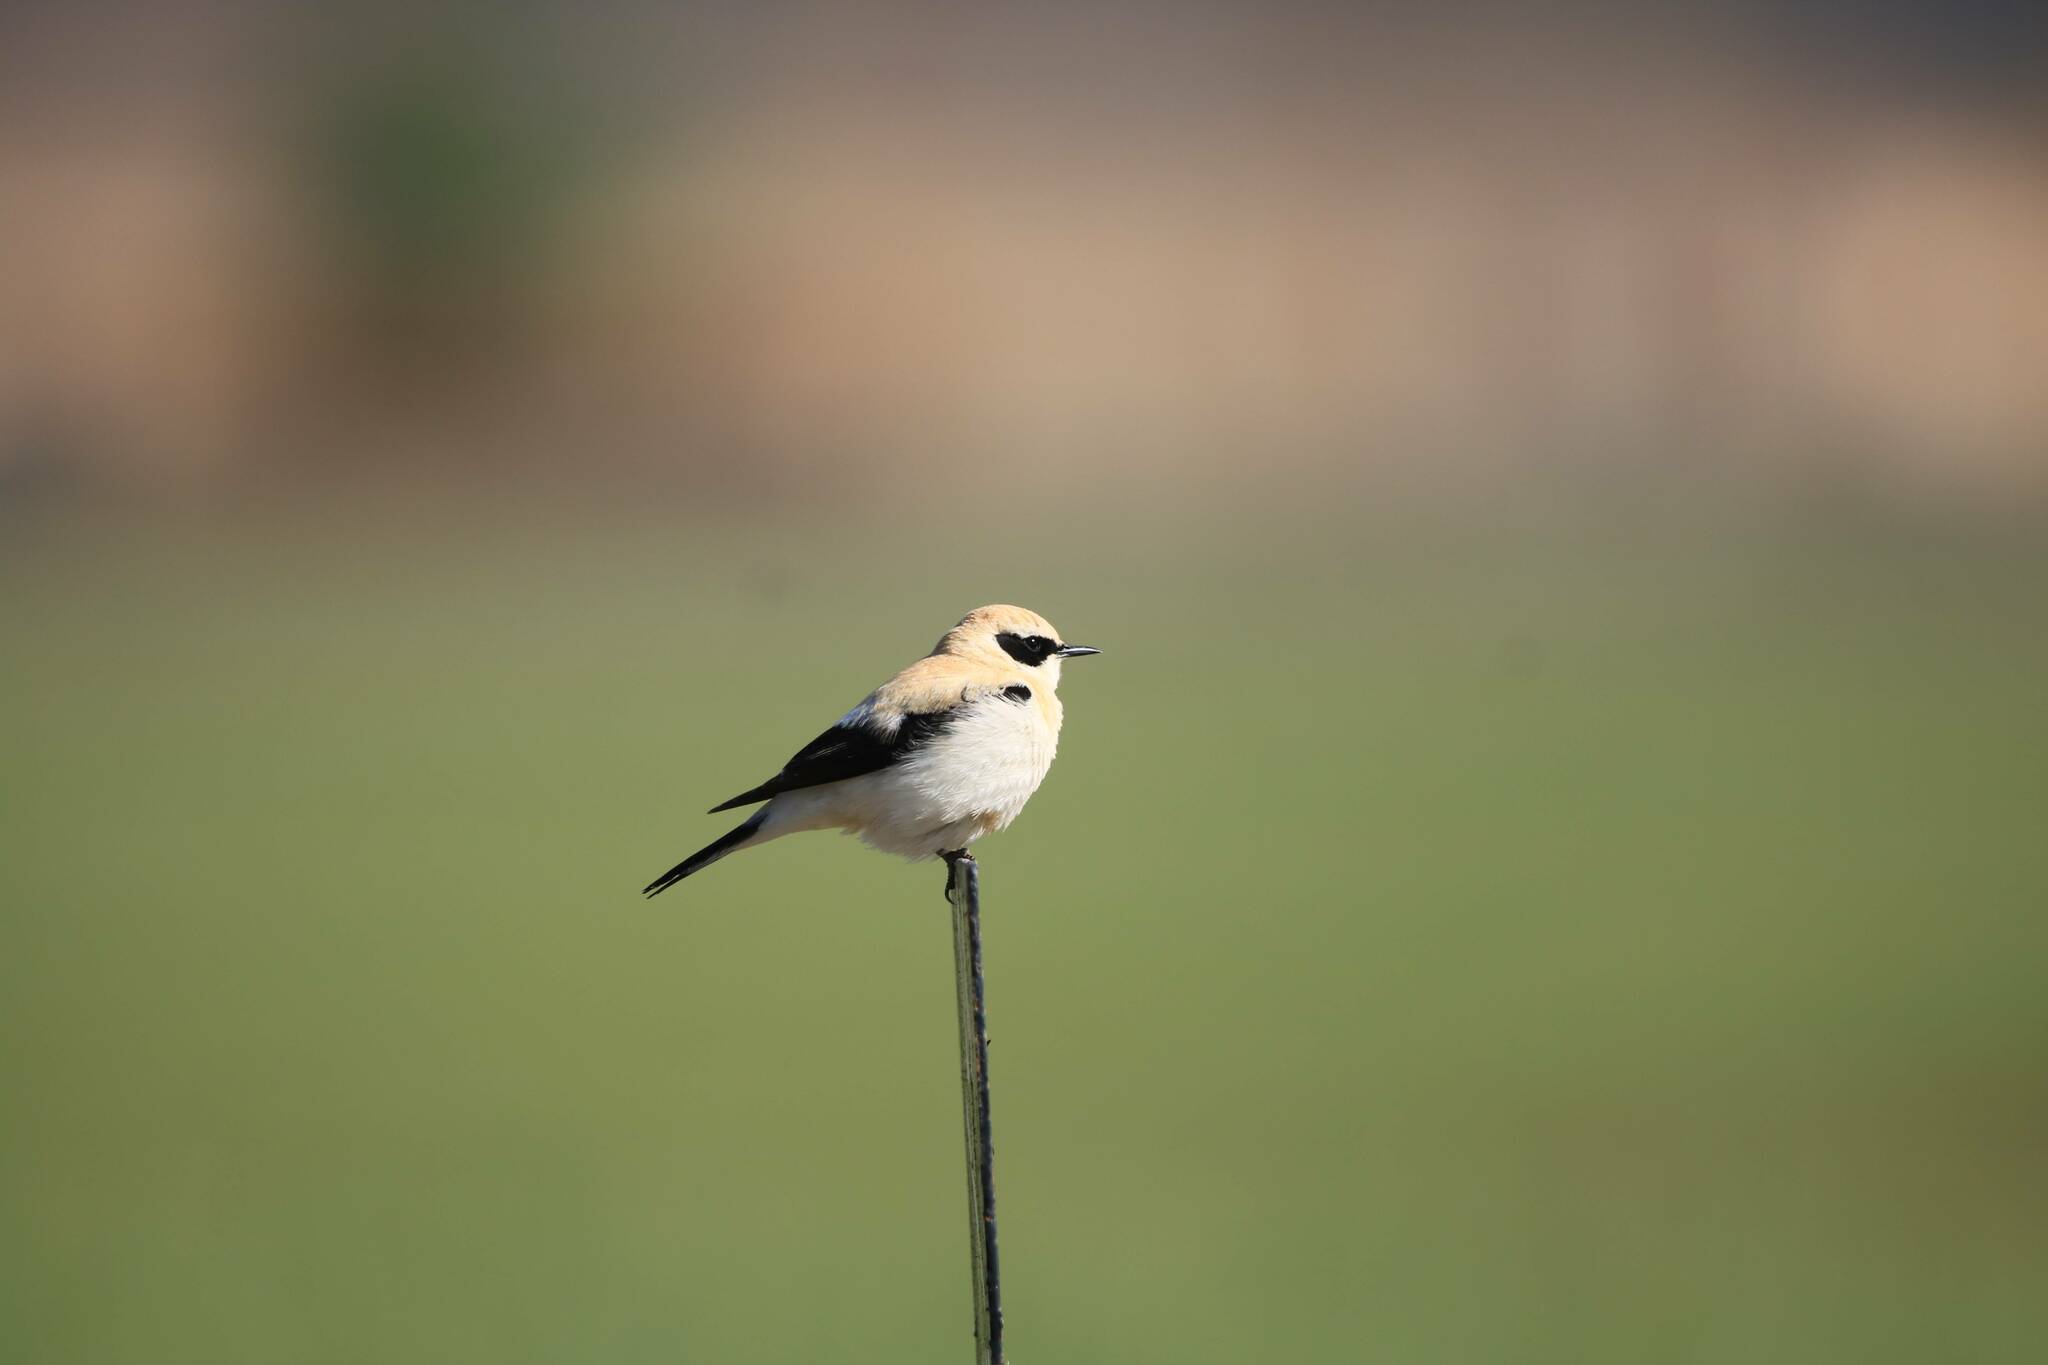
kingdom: Animalia
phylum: Chordata
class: Aves
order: Passeriformes
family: Muscicapidae
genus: Oenanthe
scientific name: Oenanthe hispanica
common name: Black-eared wheatear
